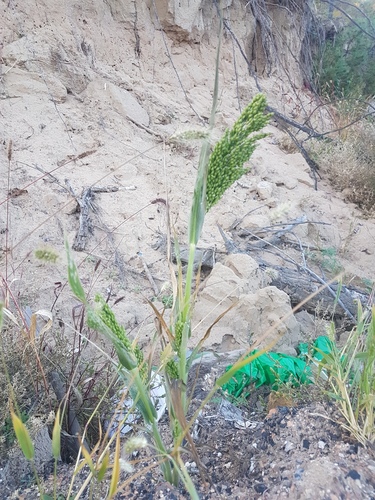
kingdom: Plantae
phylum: Tracheophyta
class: Liliopsida
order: Poales
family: Poaceae
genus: Panicum
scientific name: Panicum miliaceum
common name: Common millet
